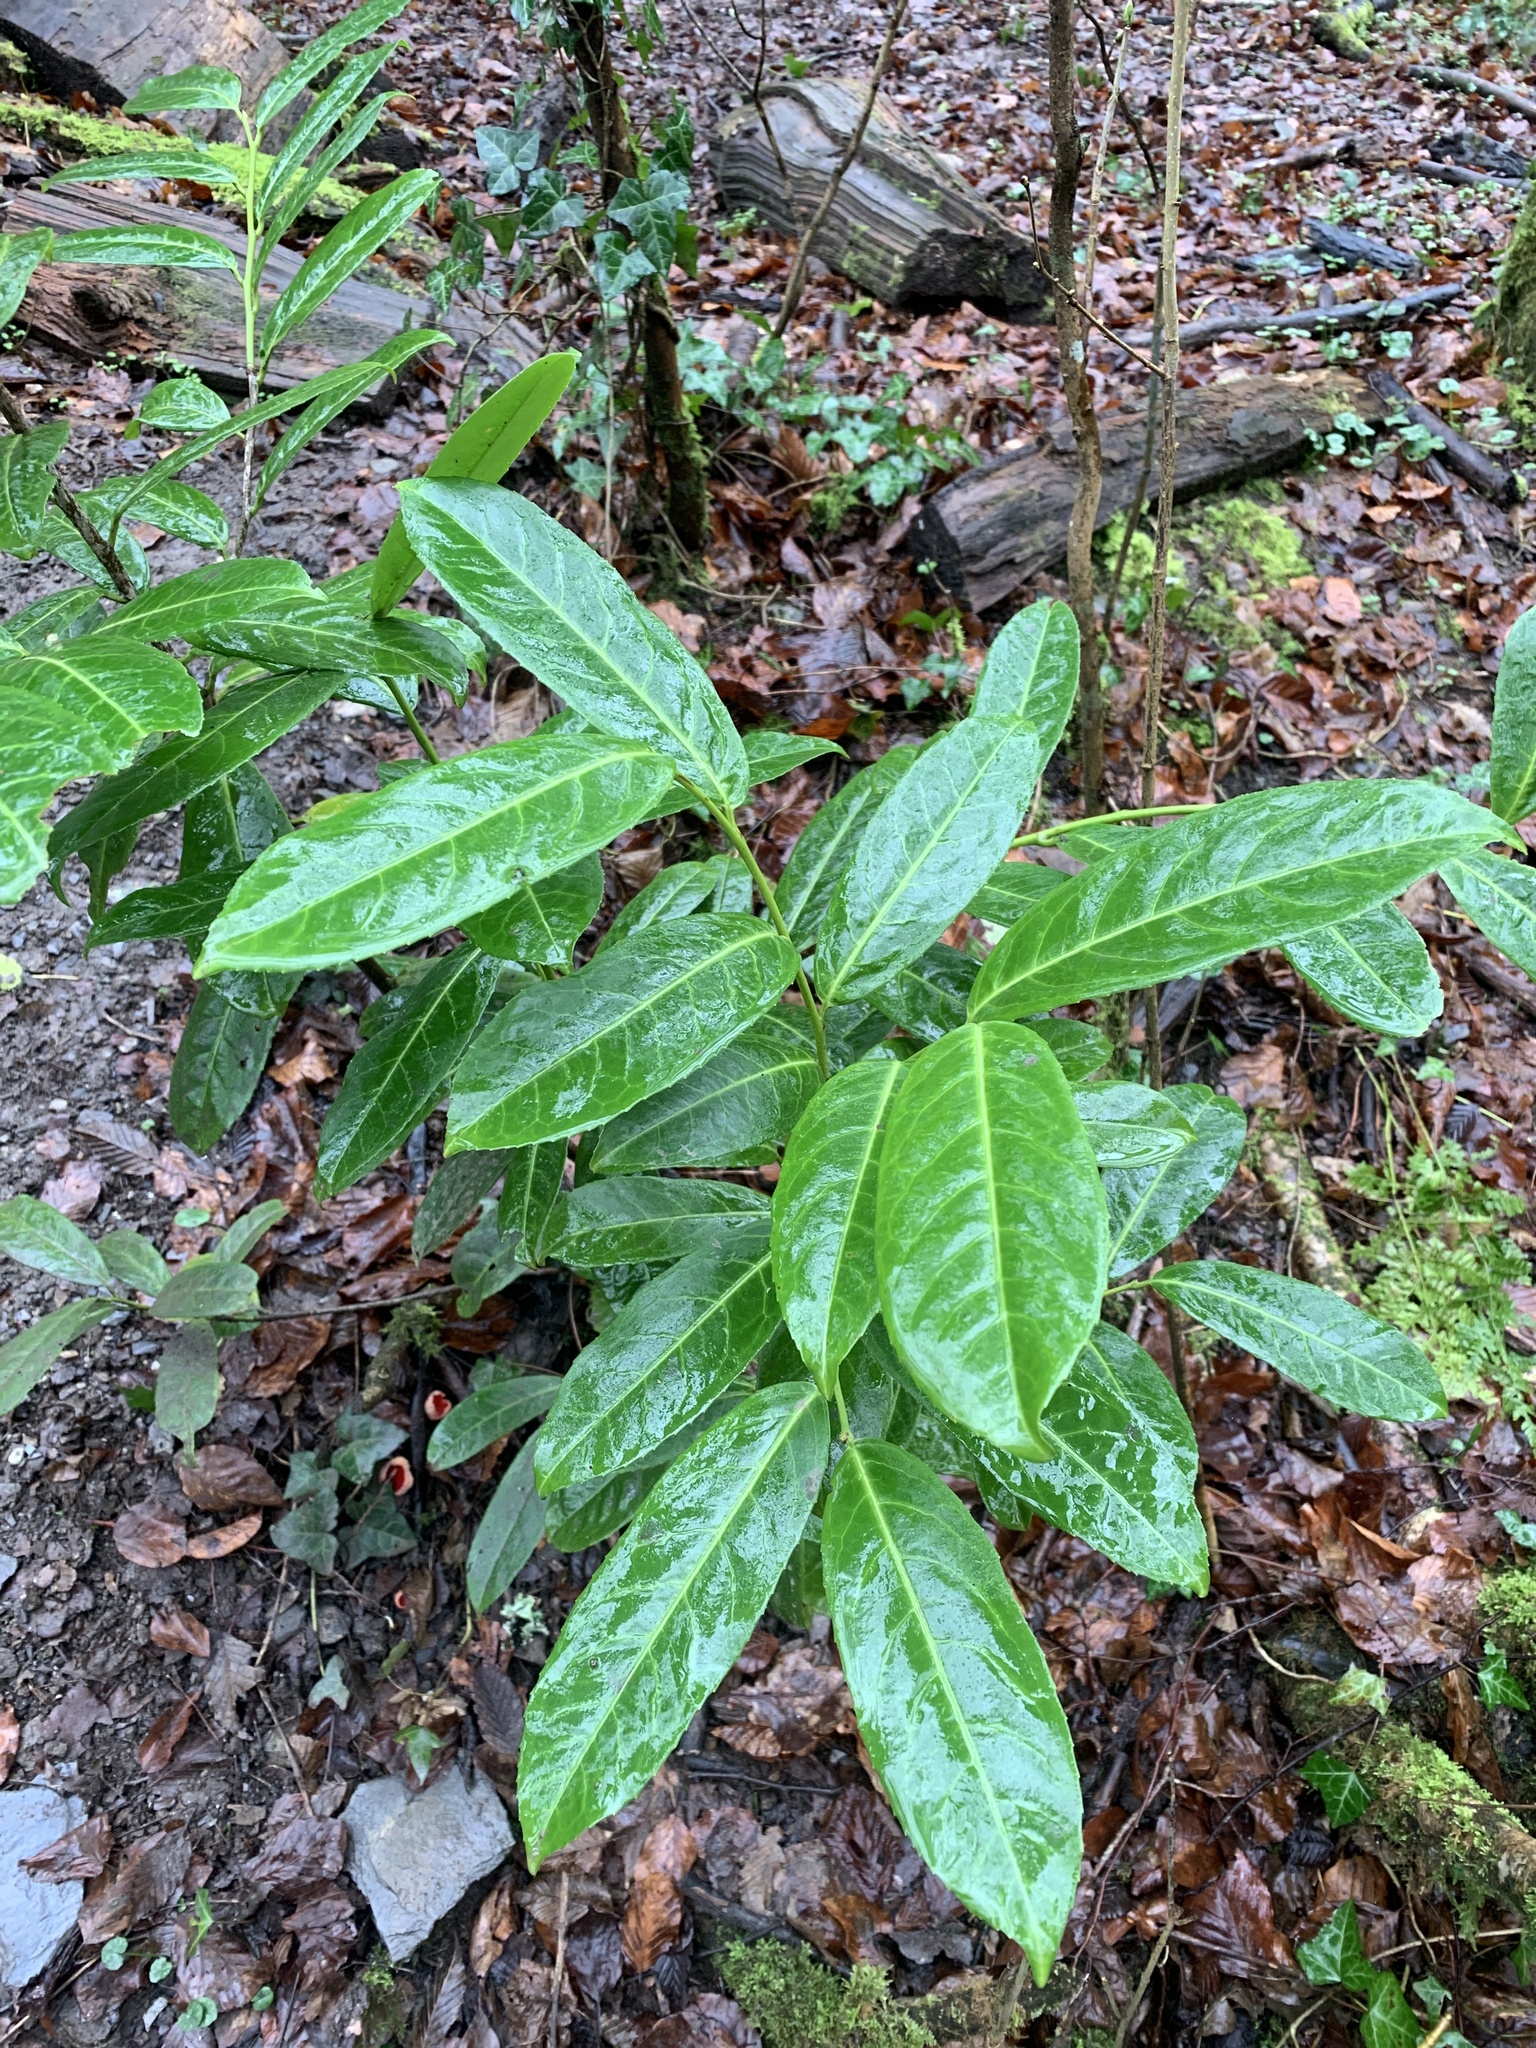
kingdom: Plantae
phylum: Tracheophyta
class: Magnoliopsida
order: Rosales
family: Rosaceae
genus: Prunus
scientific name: Prunus laurocerasus
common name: Cherry laurel
